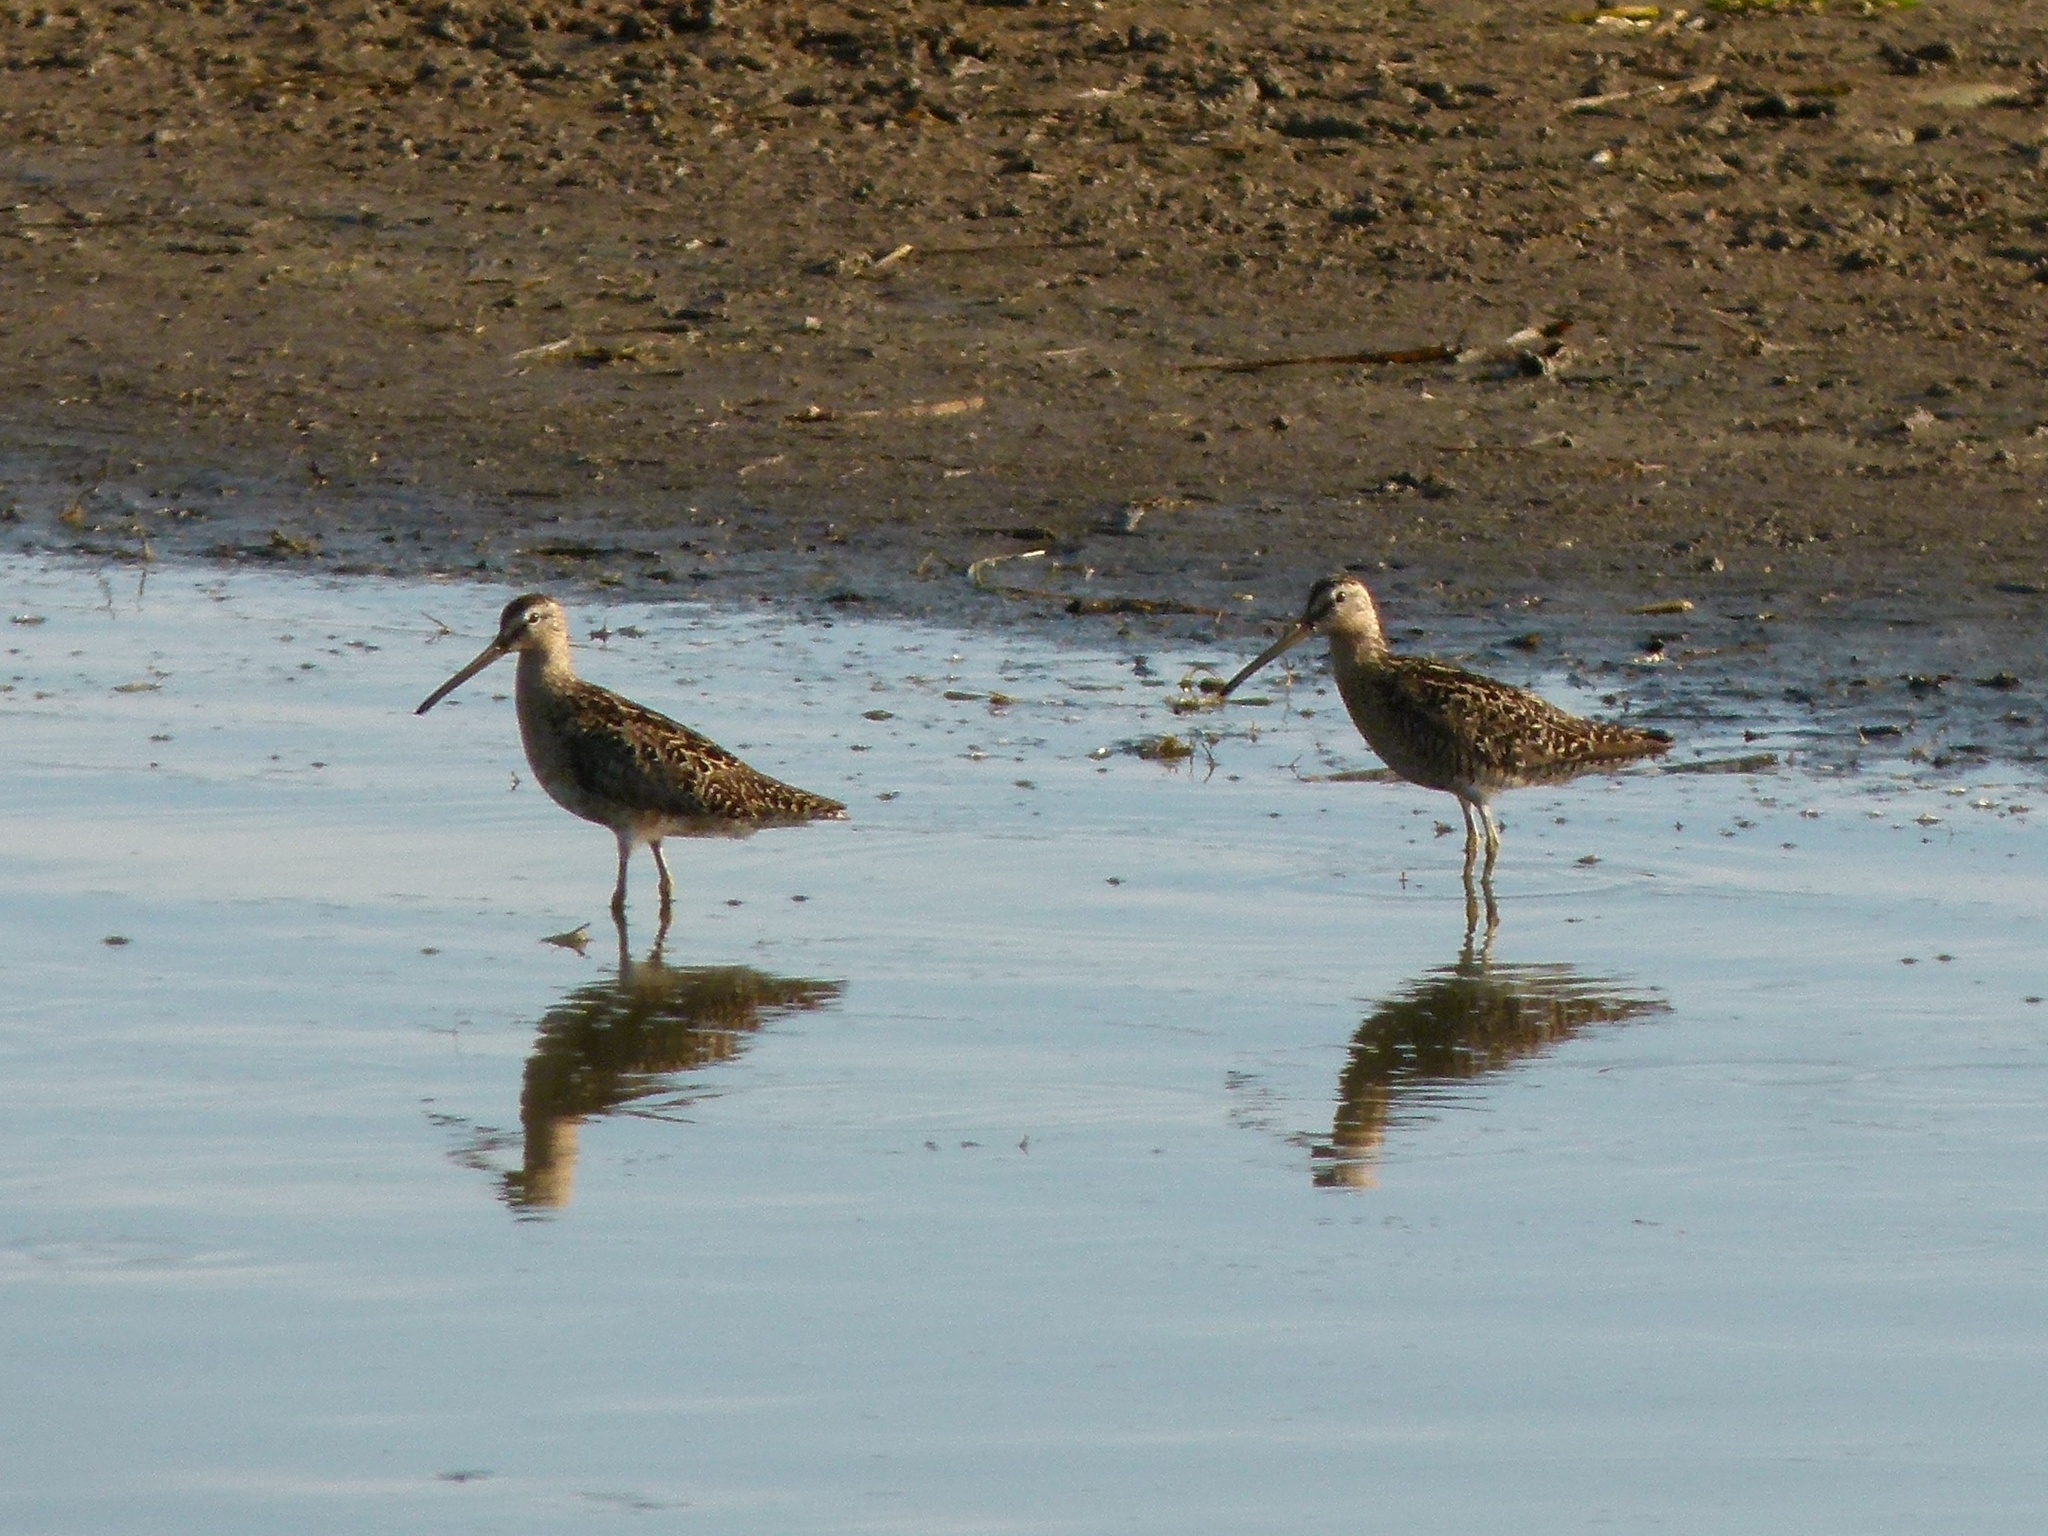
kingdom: Animalia
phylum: Chordata
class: Aves
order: Charadriiformes
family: Scolopacidae
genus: Limnodromus
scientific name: Limnodromus griseus
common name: Short-billed dowitcher
